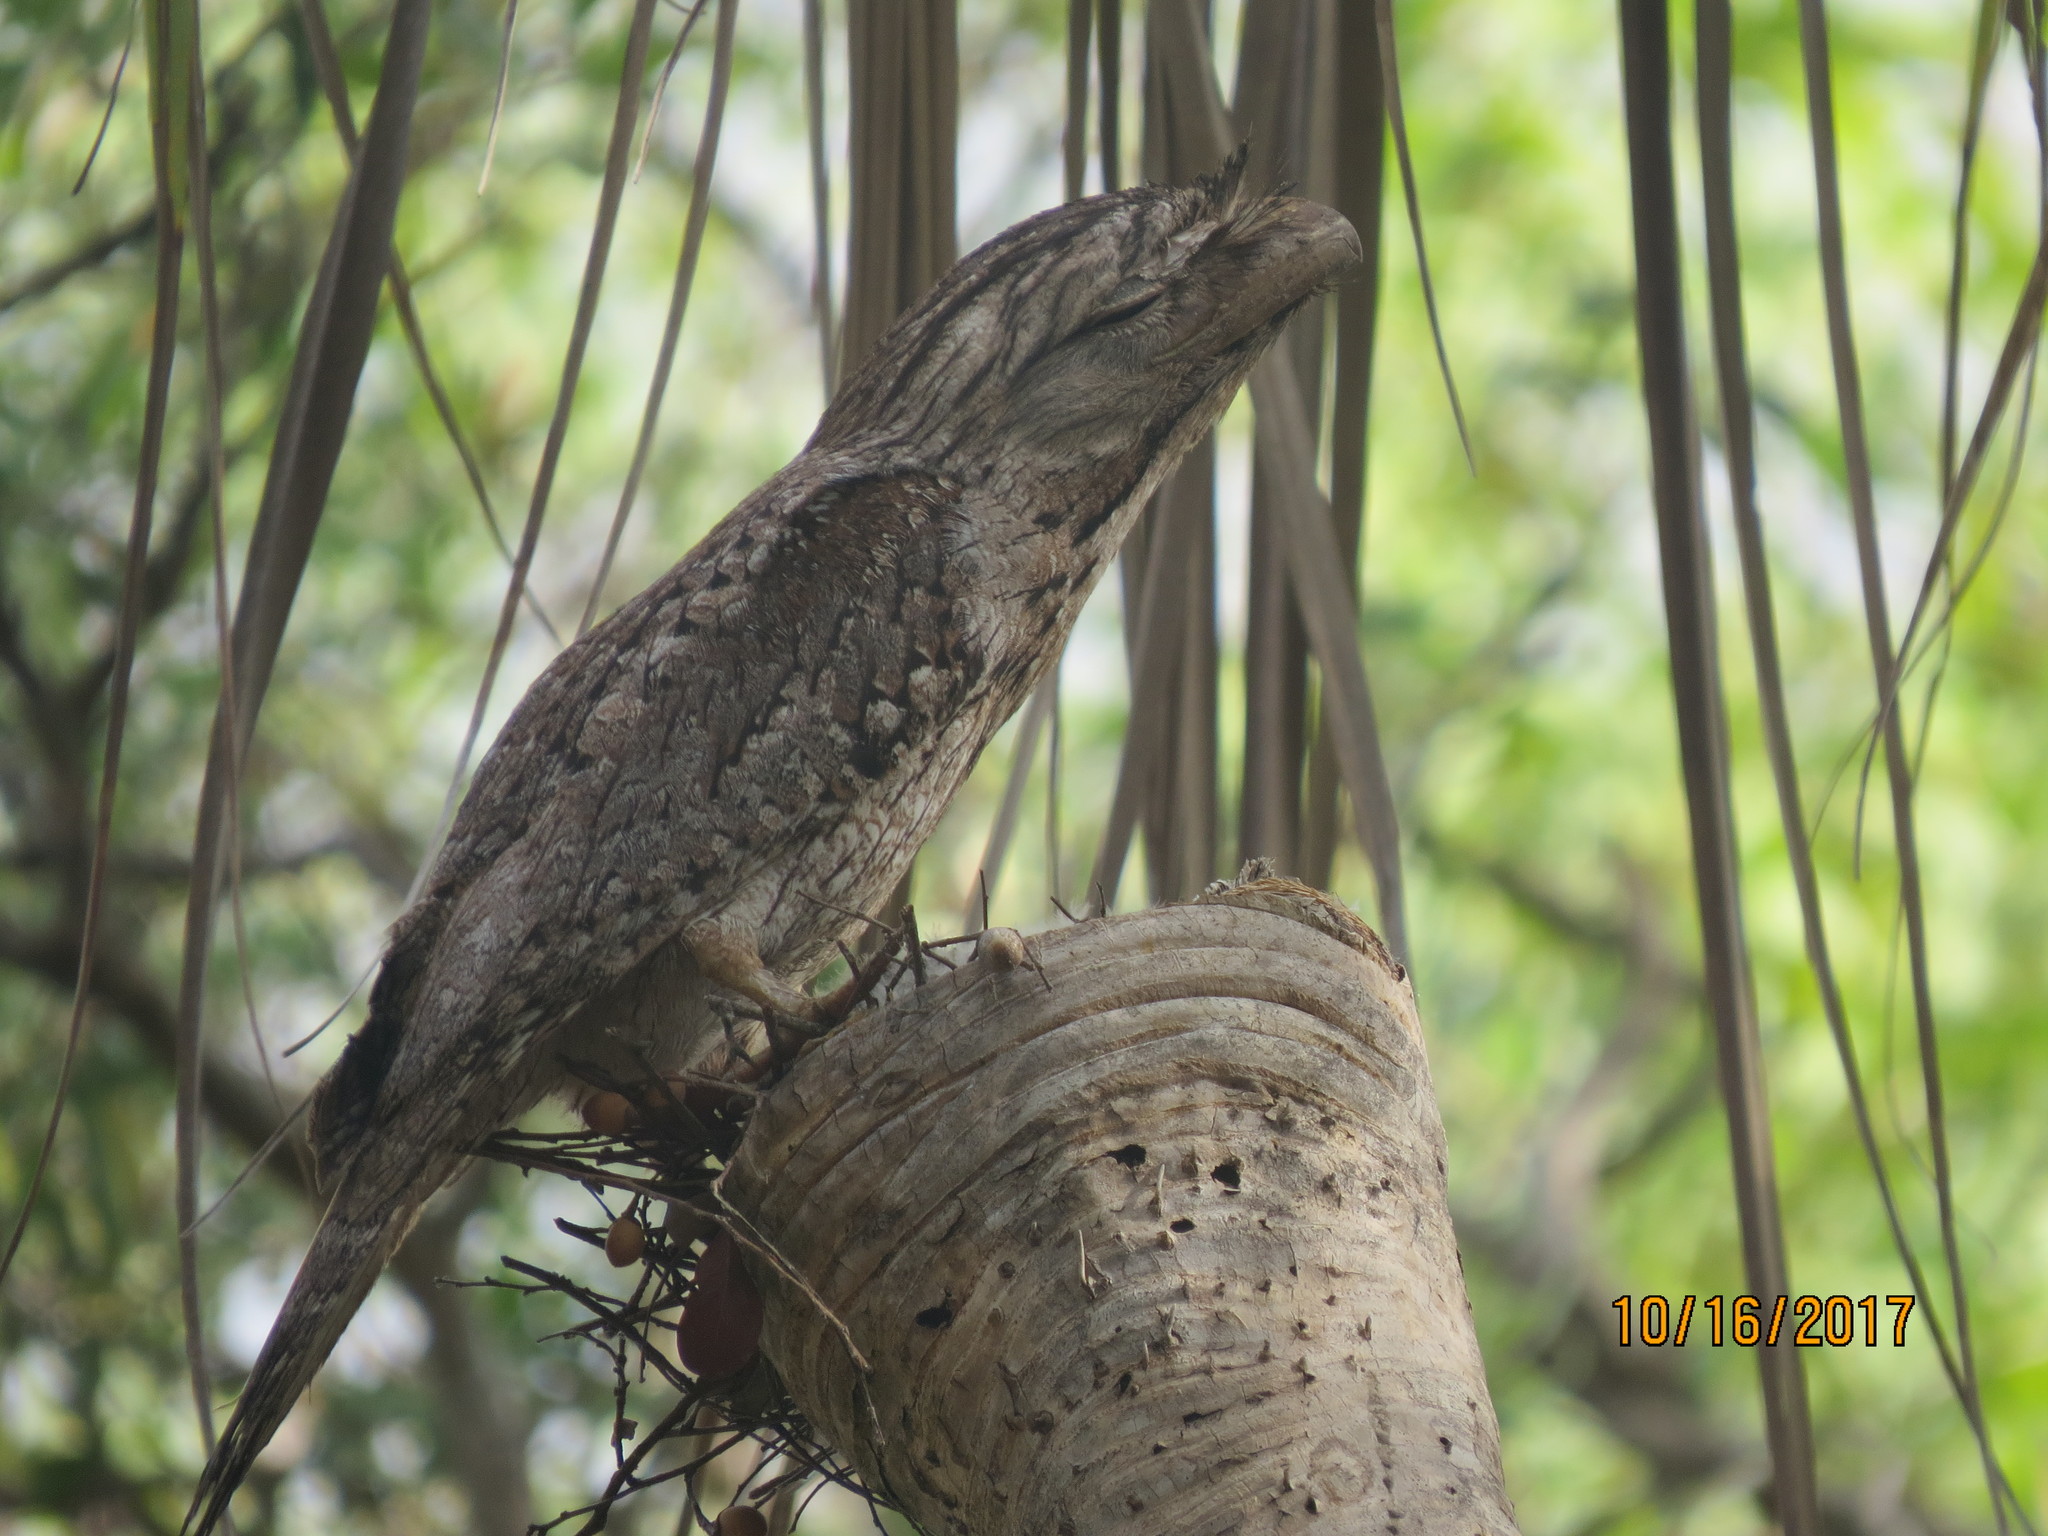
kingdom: Animalia
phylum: Chordata
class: Aves
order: Caprimulgiformes
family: Podargidae
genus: Podargus
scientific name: Podargus strigoides
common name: Tawny frogmouth
